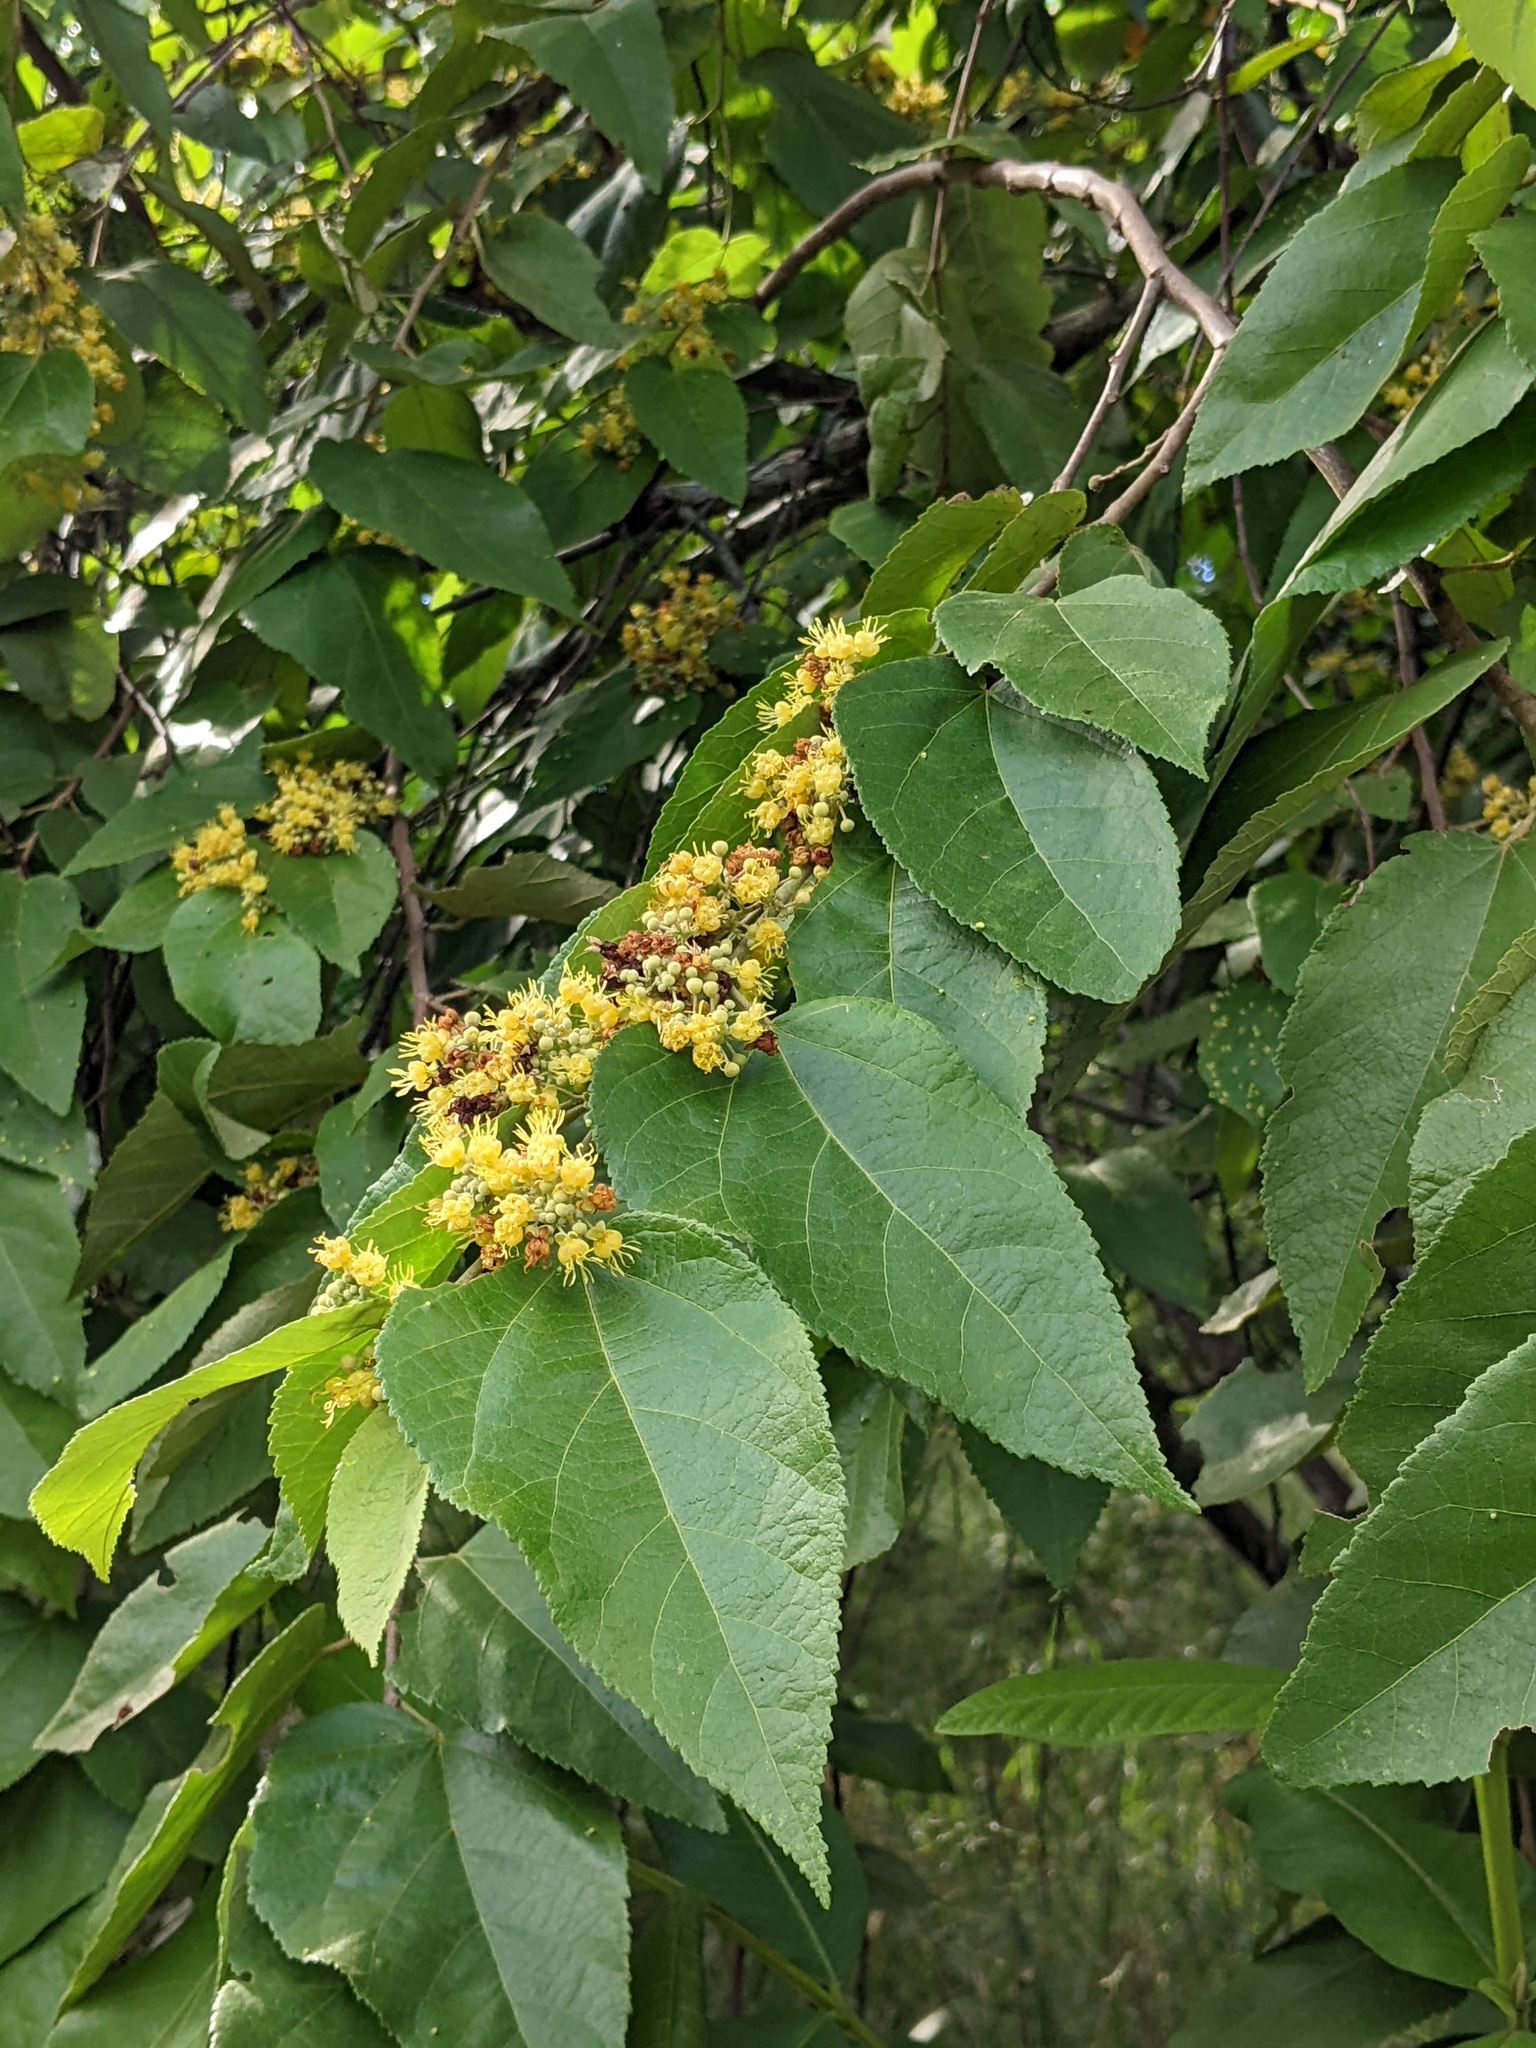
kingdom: Plantae
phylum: Tracheophyta
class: Magnoliopsida
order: Malvales
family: Malvaceae
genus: Guazuma
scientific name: Guazuma ulmifolia
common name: Bastard-cedar
